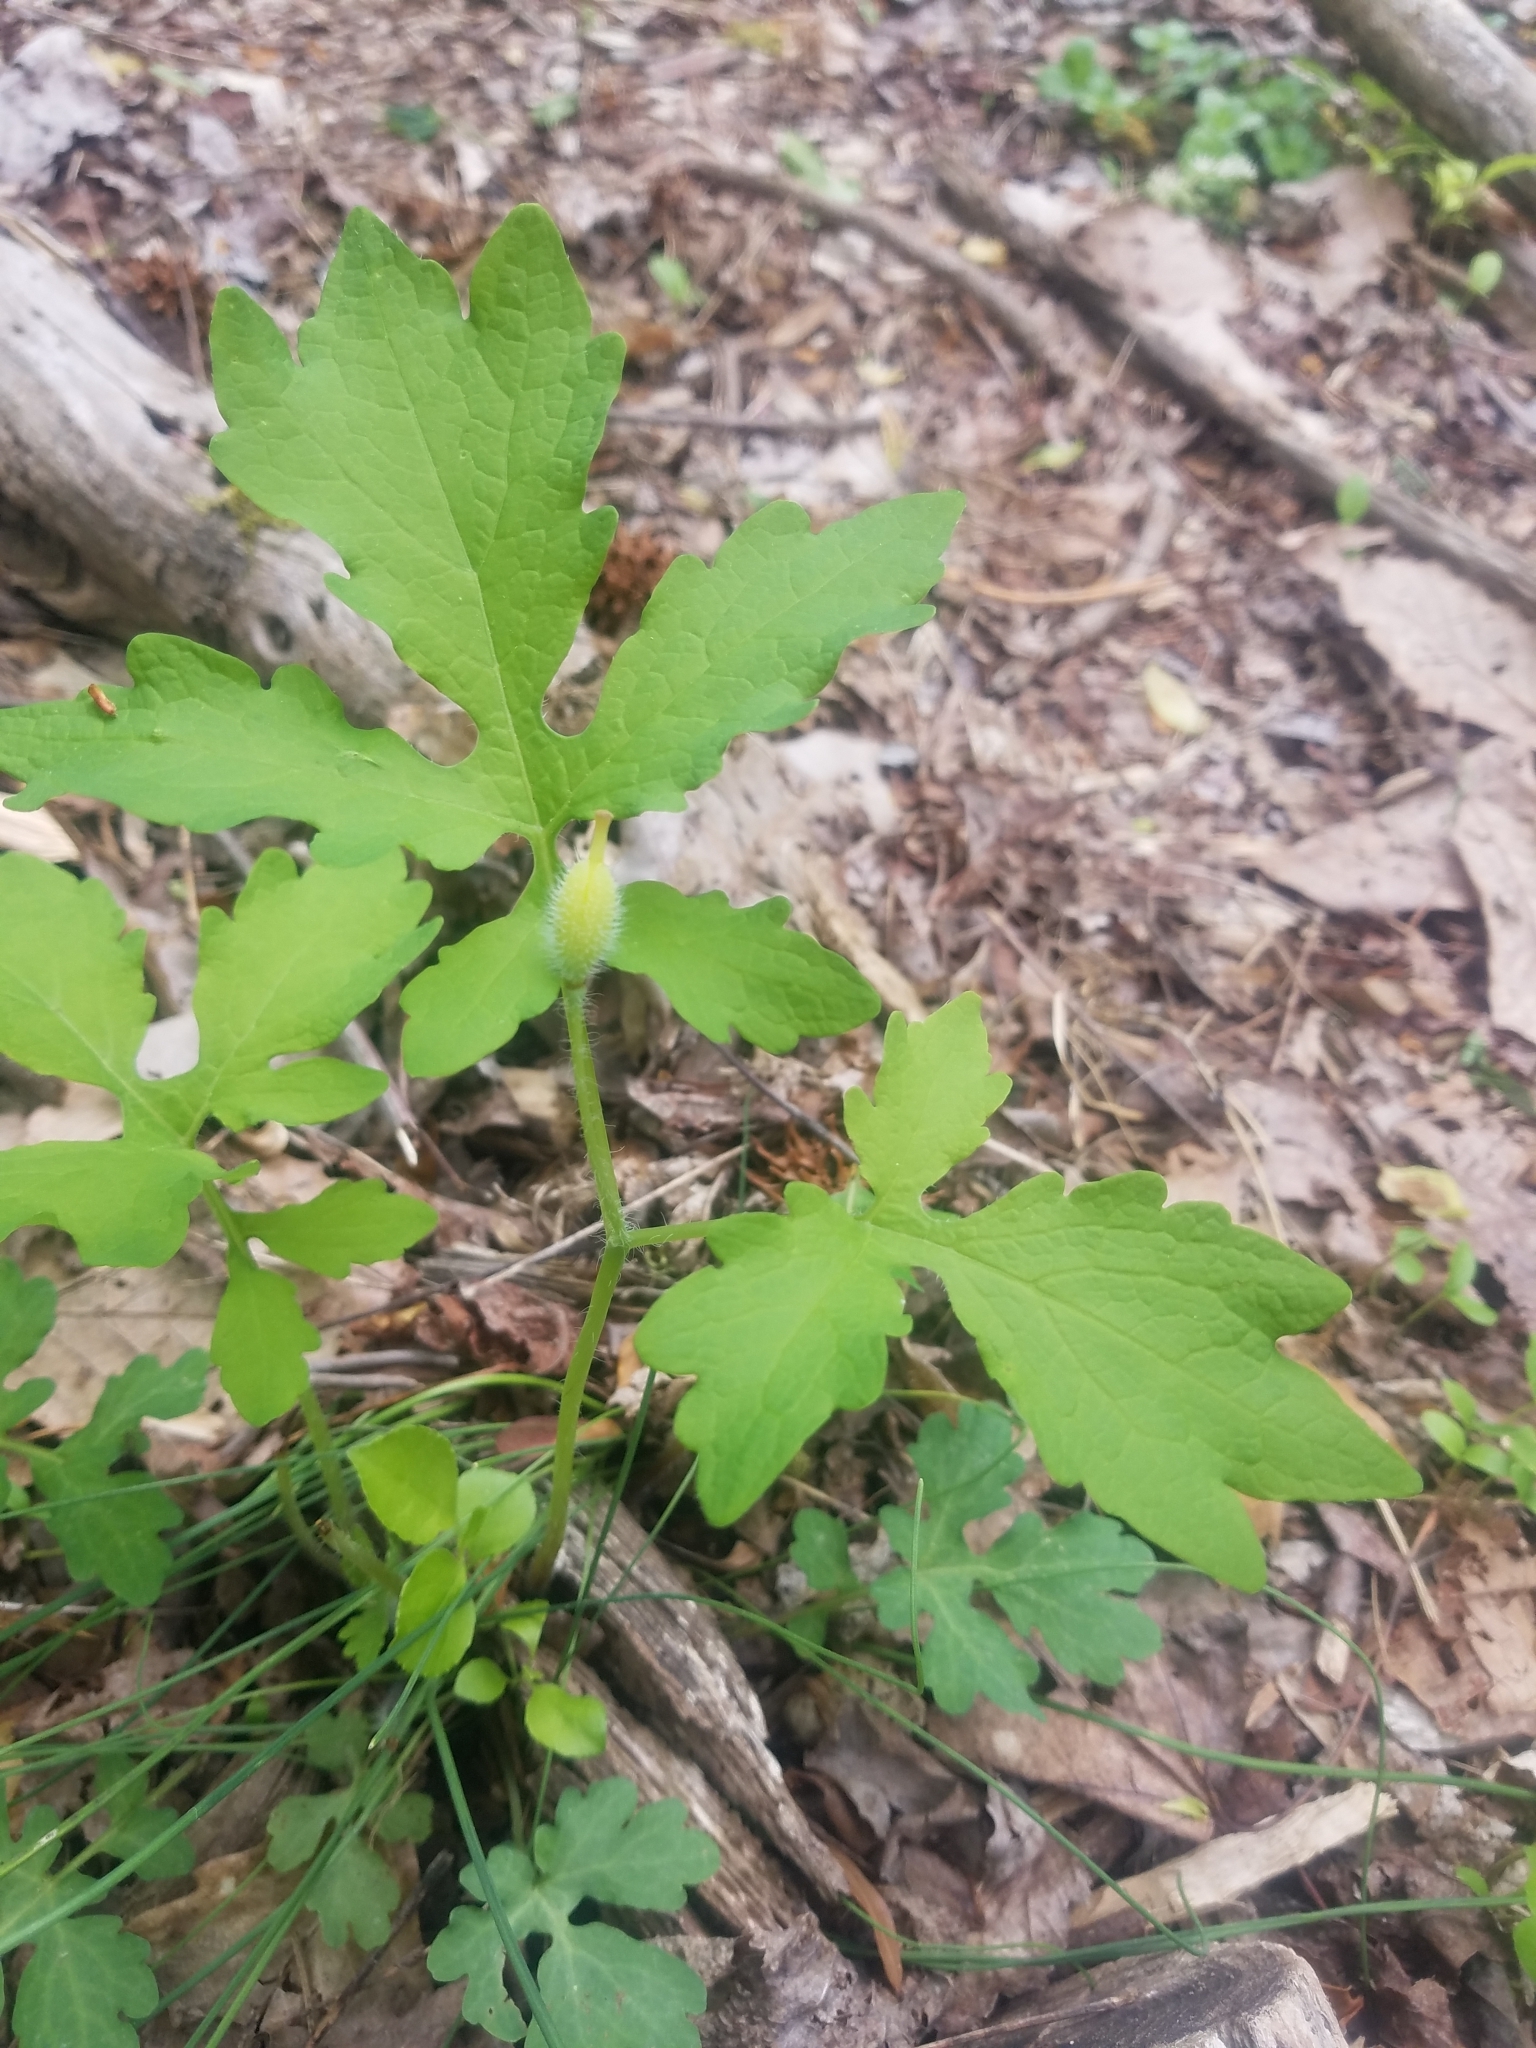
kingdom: Plantae
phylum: Tracheophyta
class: Magnoliopsida
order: Ranunculales
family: Papaveraceae
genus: Stylophorum
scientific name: Stylophorum diphyllum
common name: Celandine poppy
